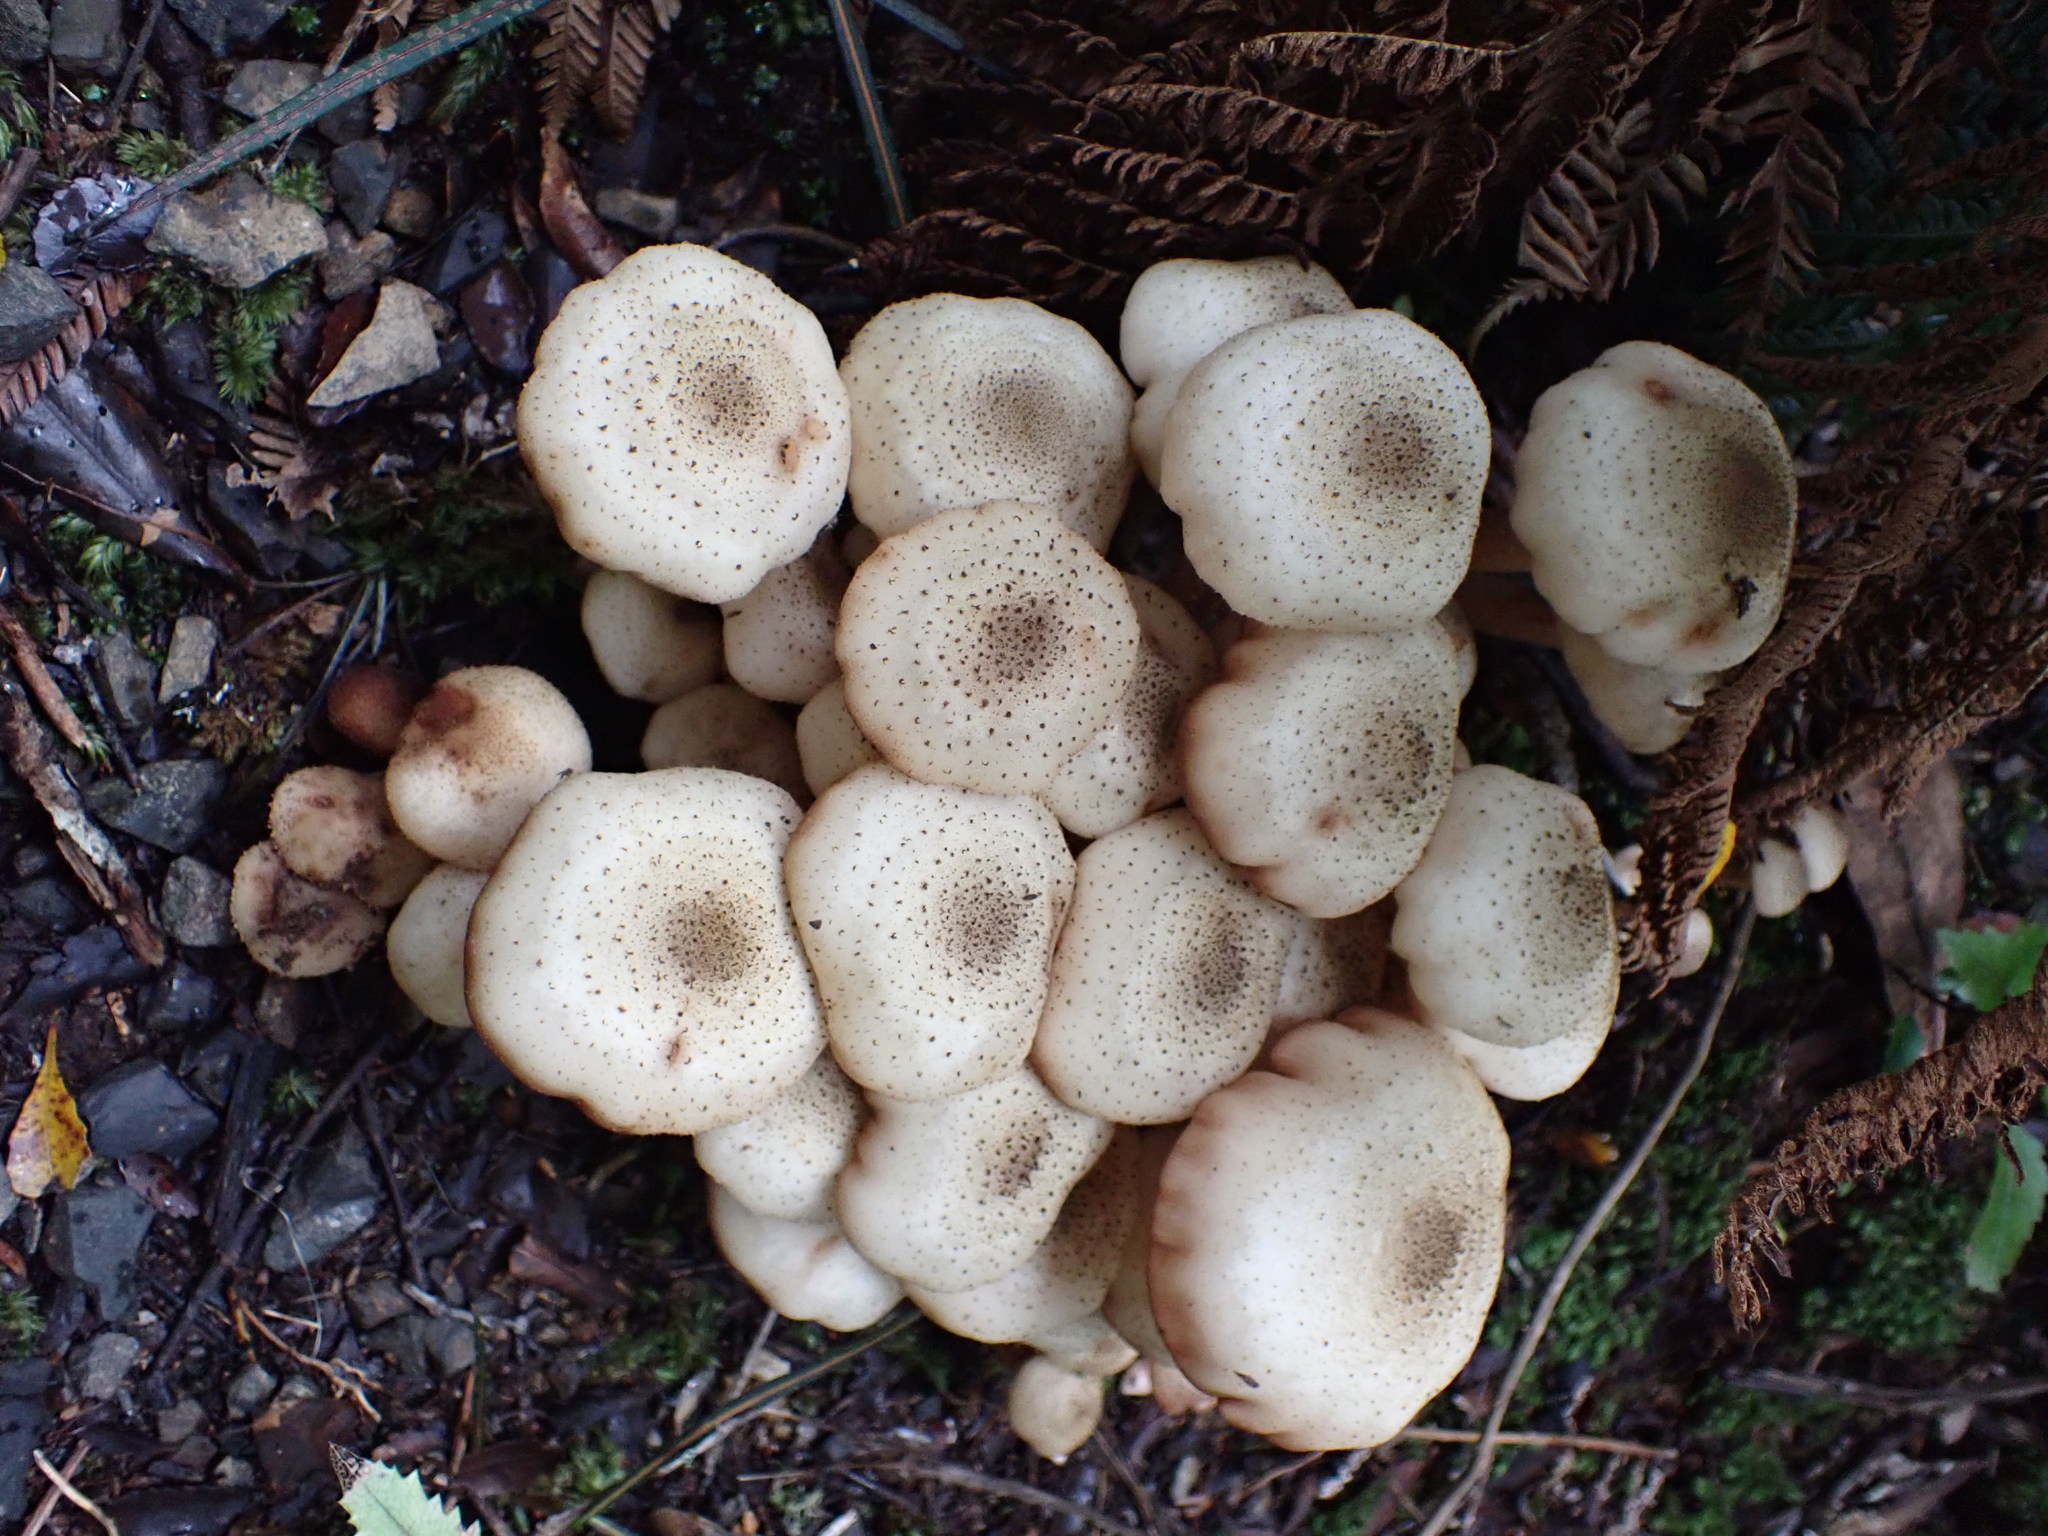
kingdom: Fungi
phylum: Basidiomycota
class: Agaricomycetes
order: Agaricales
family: Physalacriaceae
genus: Armillaria
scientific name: Armillaria limonea
